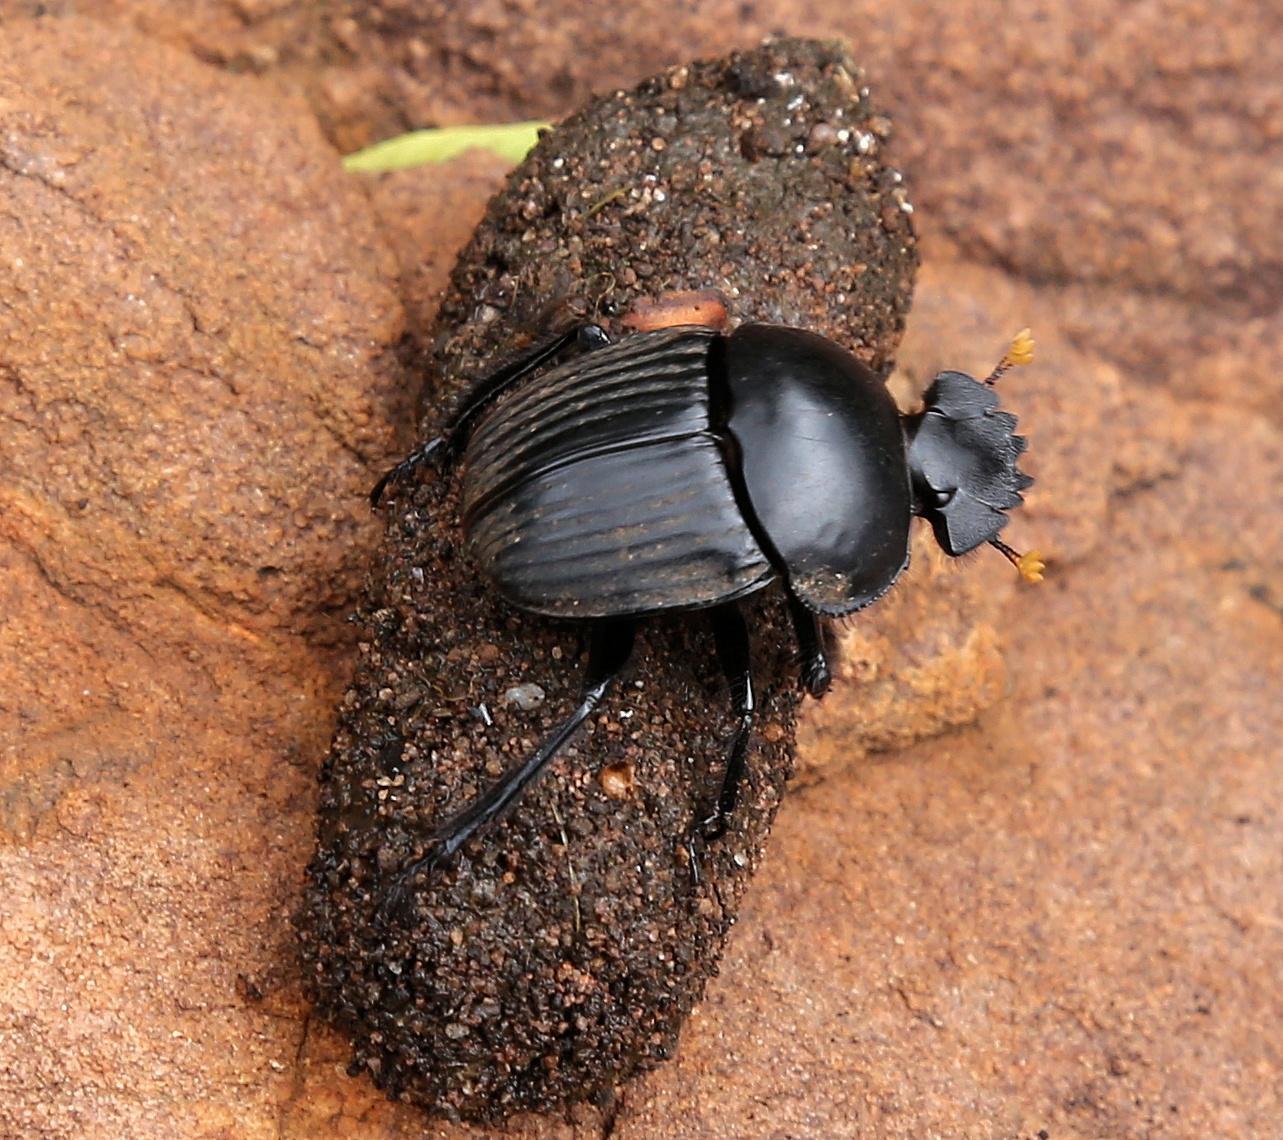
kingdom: Animalia
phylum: Arthropoda
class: Insecta
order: Coleoptera
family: Scarabaeidae
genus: Scarabaeus
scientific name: Scarabaeus schulzeae
